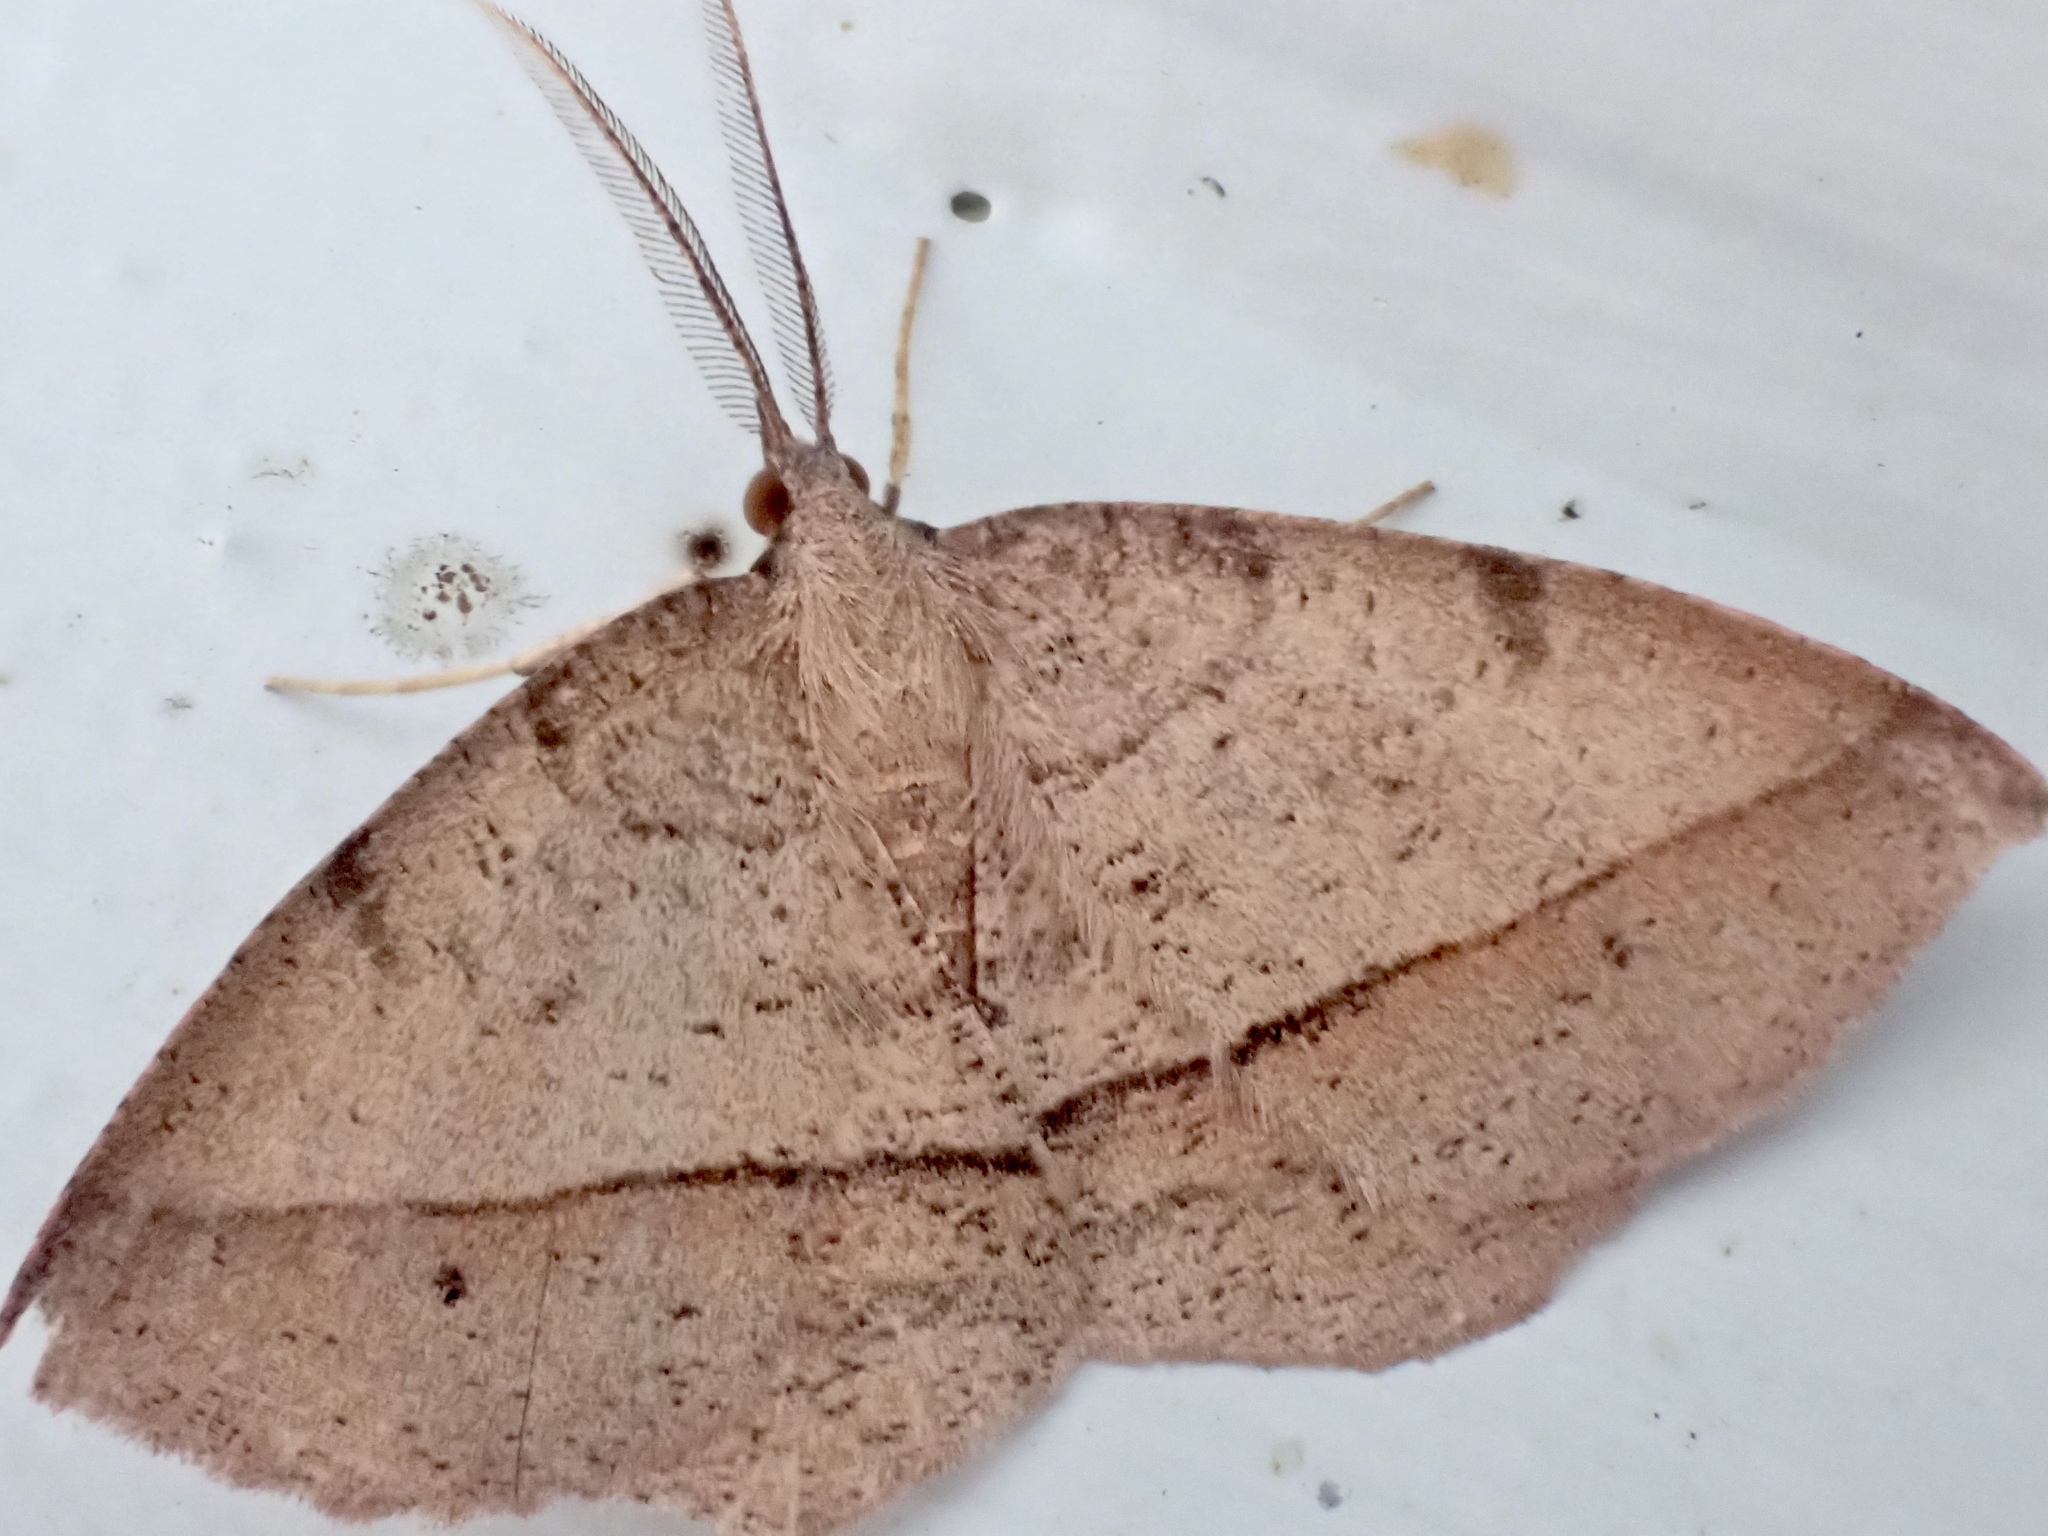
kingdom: Animalia
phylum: Arthropoda
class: Insecta
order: Lepidoptera
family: Geometridae
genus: Erastria
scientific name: Erastria cruentaria
